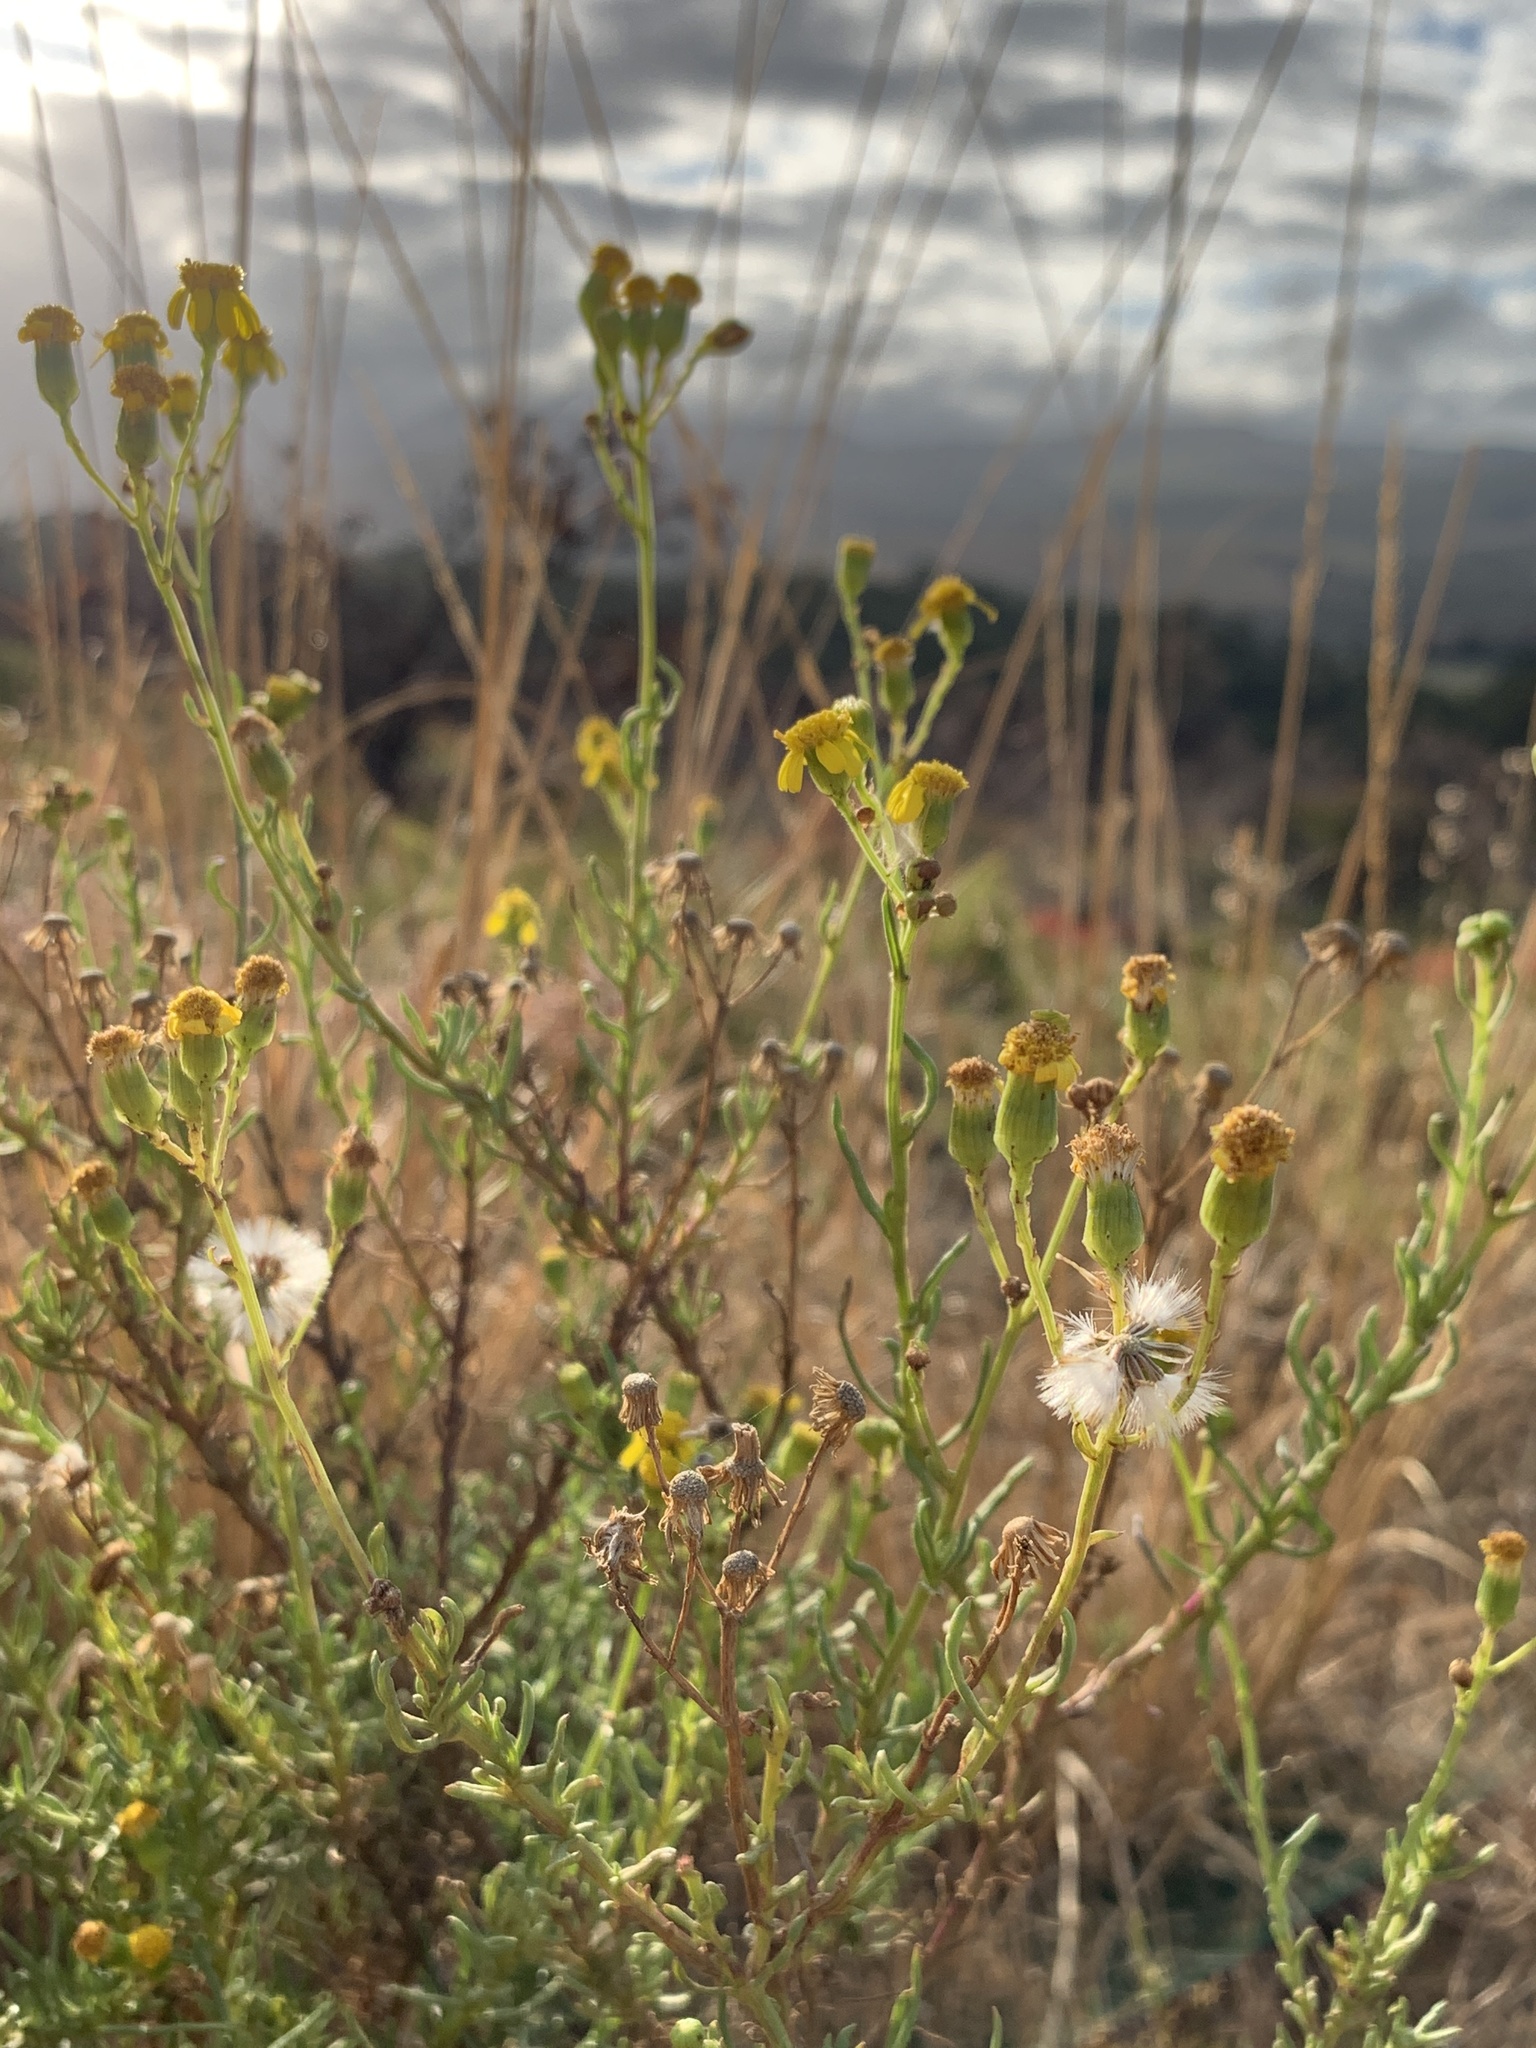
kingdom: Plantae
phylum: Tracheophyta
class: Magnoliopsida
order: Asterales
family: Asteraceae
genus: Senecio
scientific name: Senecio burchellii
